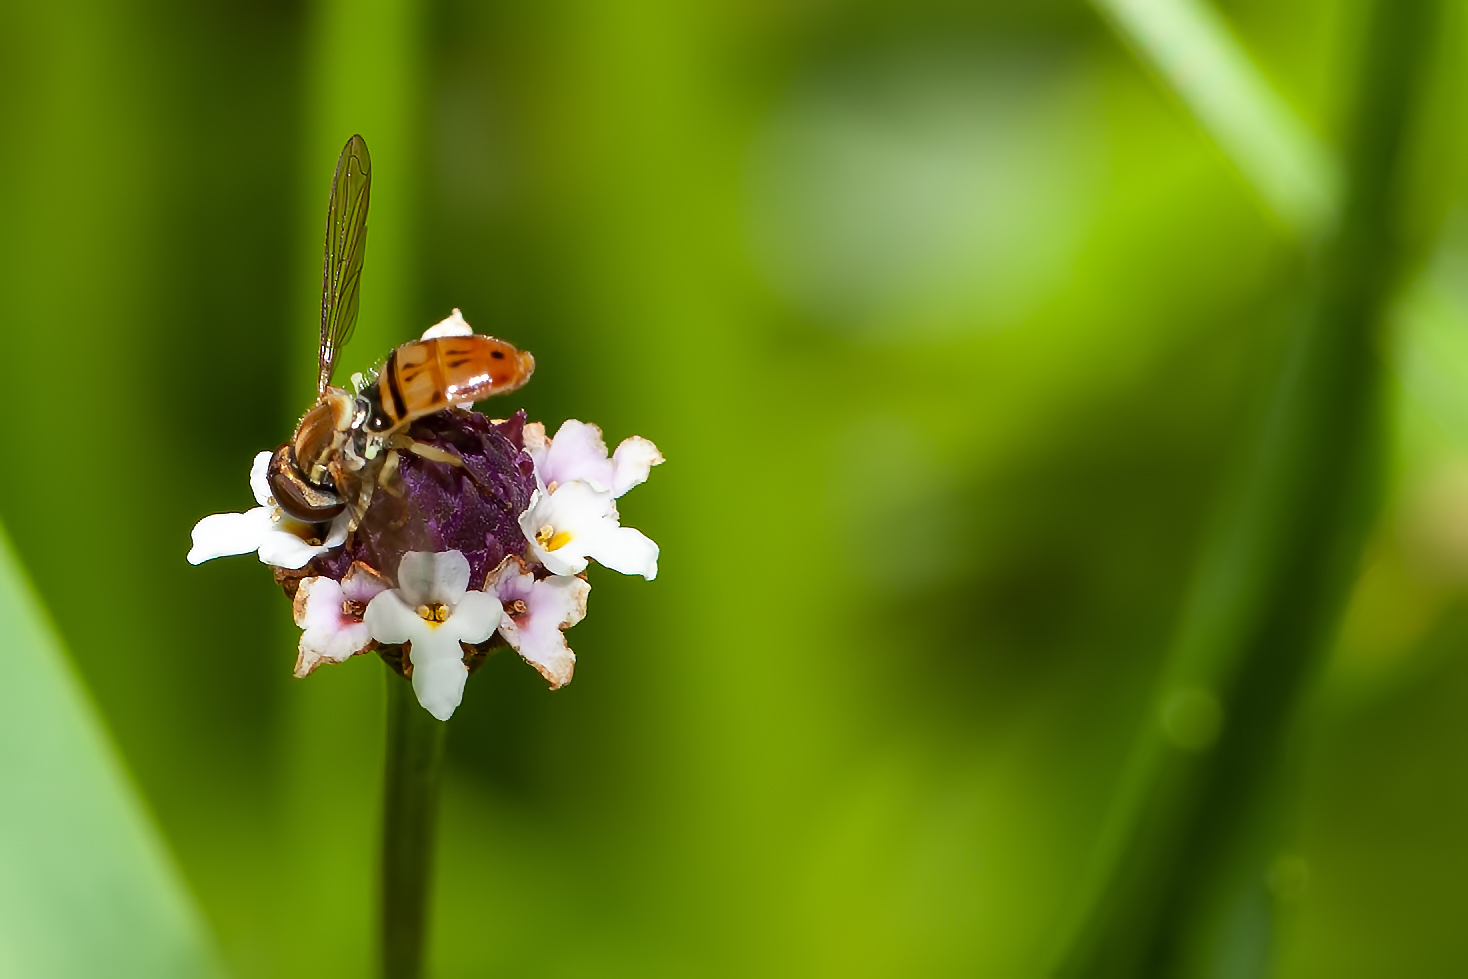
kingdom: Animalia
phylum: Arthropoda
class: Insecta
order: Diptera
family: Syrphidae
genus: Toxomerus
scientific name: Toxomerus marginatus
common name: Syrphid fly
